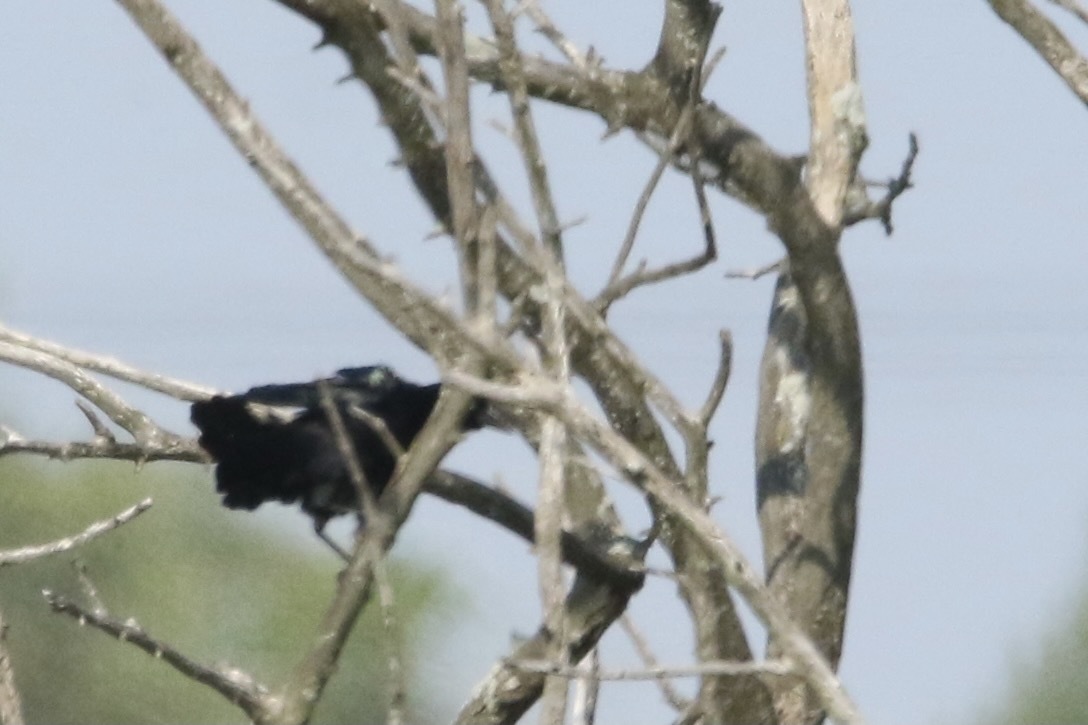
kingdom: Animalia
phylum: Chordata
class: Aves
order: Passeriformes
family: Icteridae
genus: Quiscalus
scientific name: Quiscalus major
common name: Boat-tailed grackle
